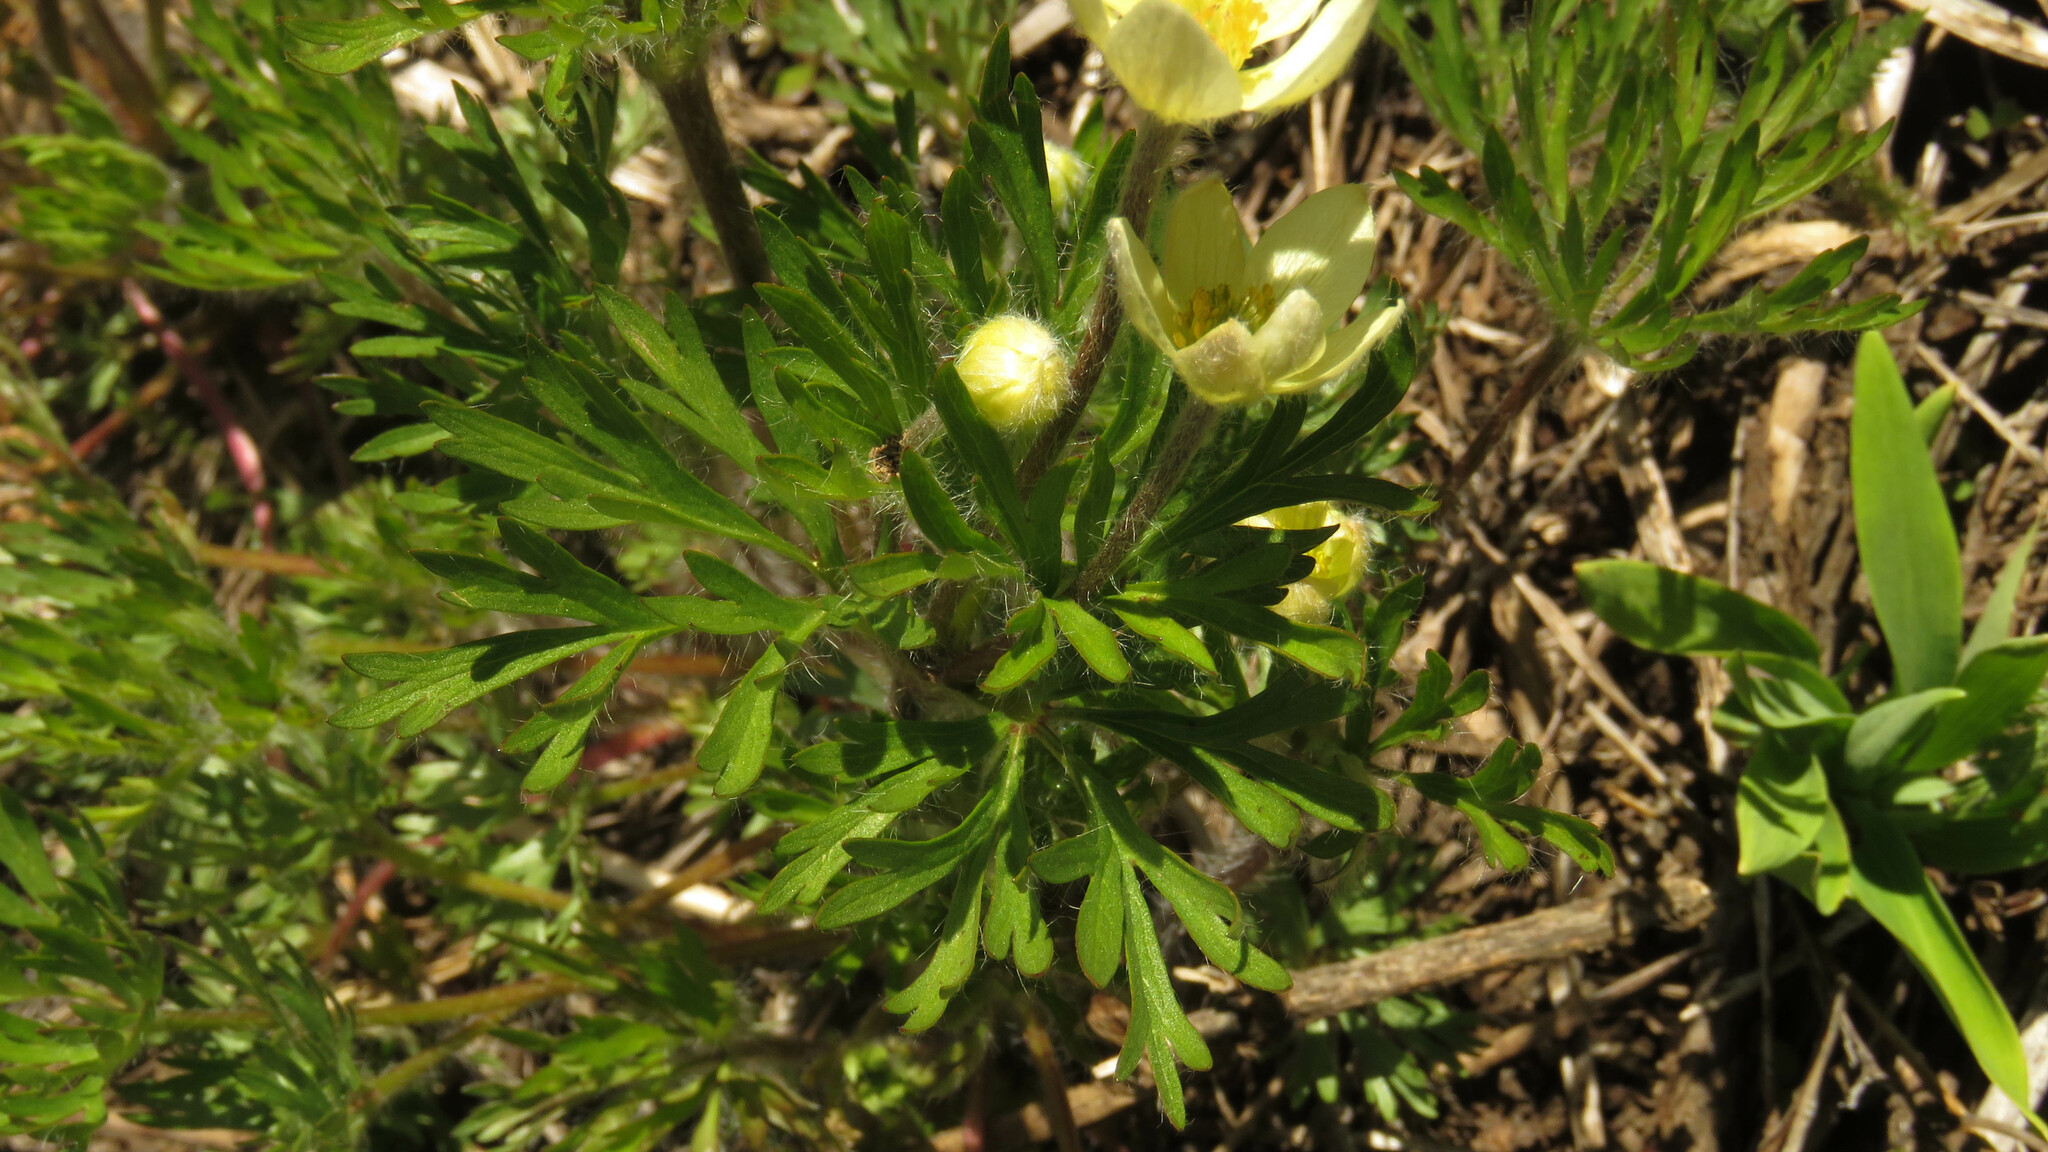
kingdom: Plantae
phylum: Tracheophyta
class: Magnoliopsida
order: Ranunculales
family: Ranunculaceae
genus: Anemone
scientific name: Anemone multifida
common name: Bird's-foot anemone
